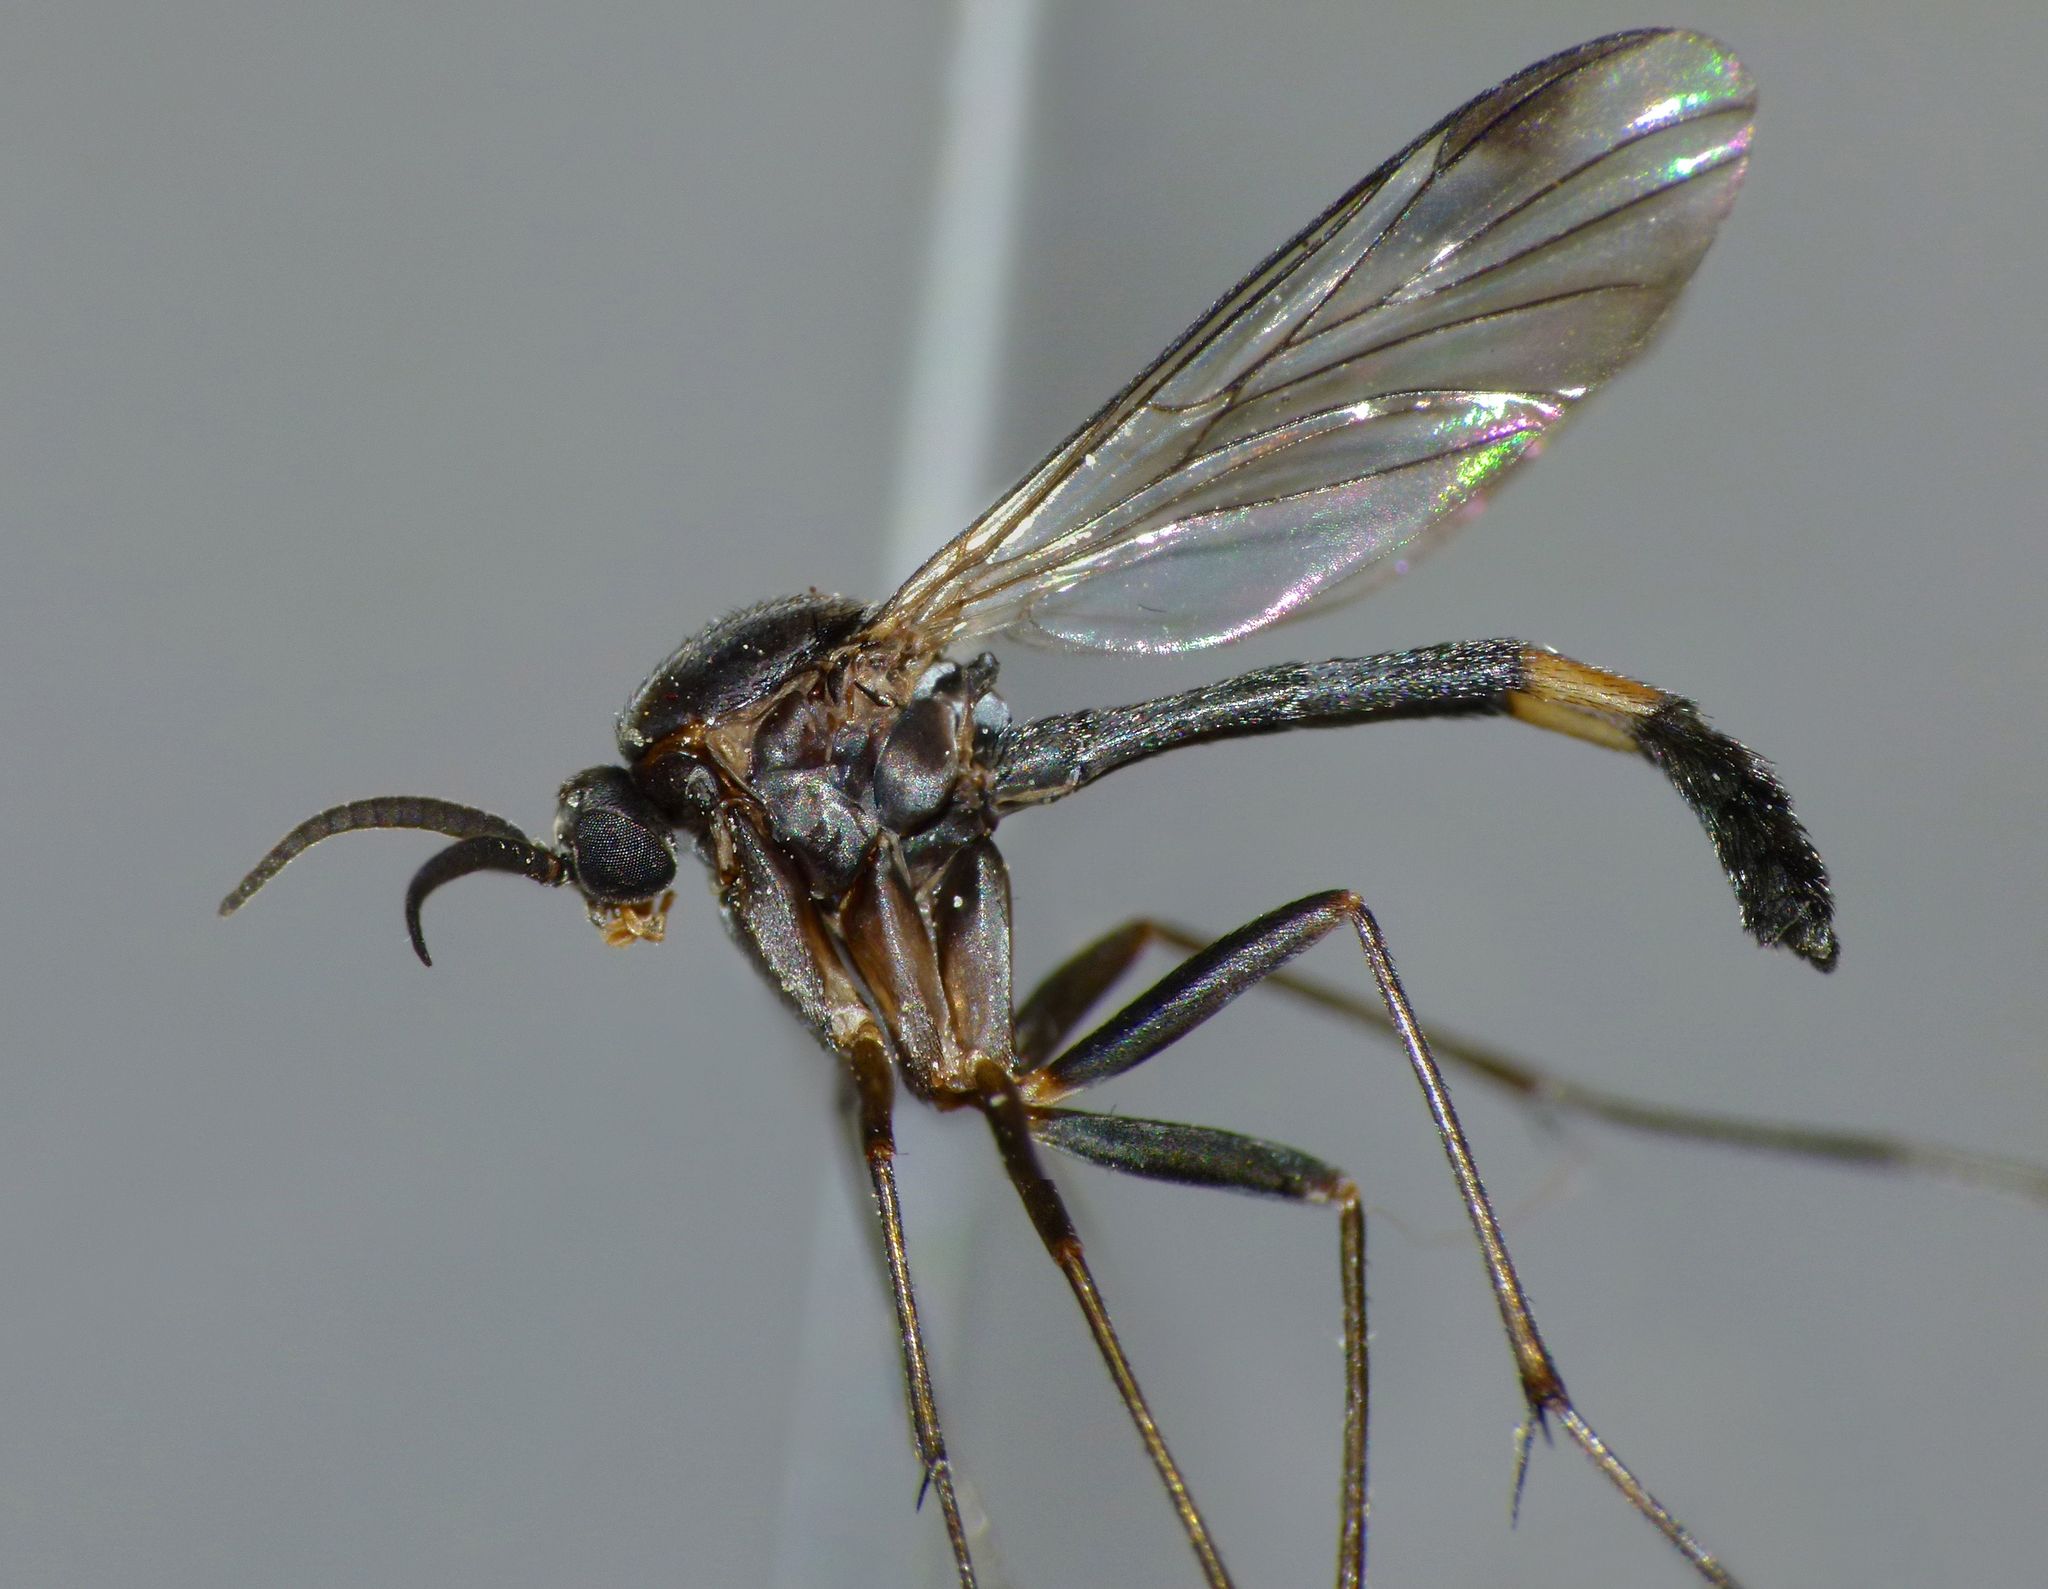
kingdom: Animalia
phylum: Arthropoda
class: Insecta
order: Diptera
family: Keroplatidae
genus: Isoneuromyia
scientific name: Isoneuromyia harrisi
